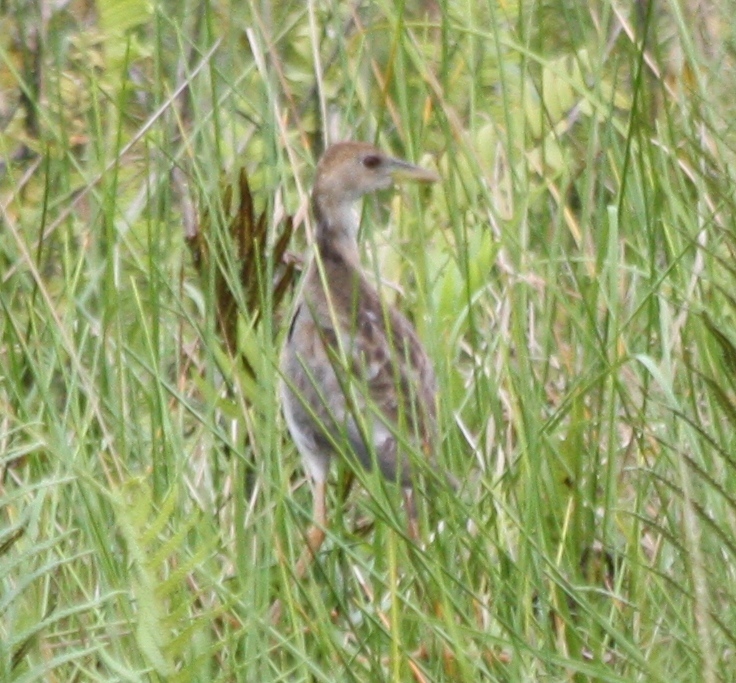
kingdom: Animalia
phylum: Chordata
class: Aves
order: Gruiformes
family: Rallidae
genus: Porphyrio
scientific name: Porphyrio flavirostris
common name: Azure gallinule
